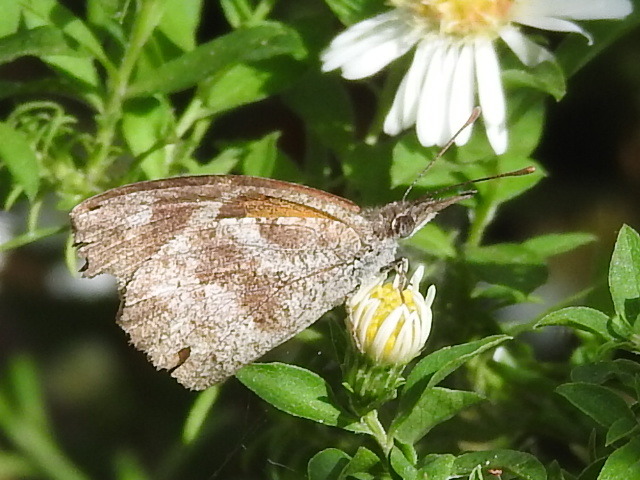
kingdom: Animalia
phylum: Arthropoda
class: Insecta
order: Lepidoptera
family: Nymphalidae
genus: Libytheana
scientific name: Libytheana carinenta
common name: American snout
